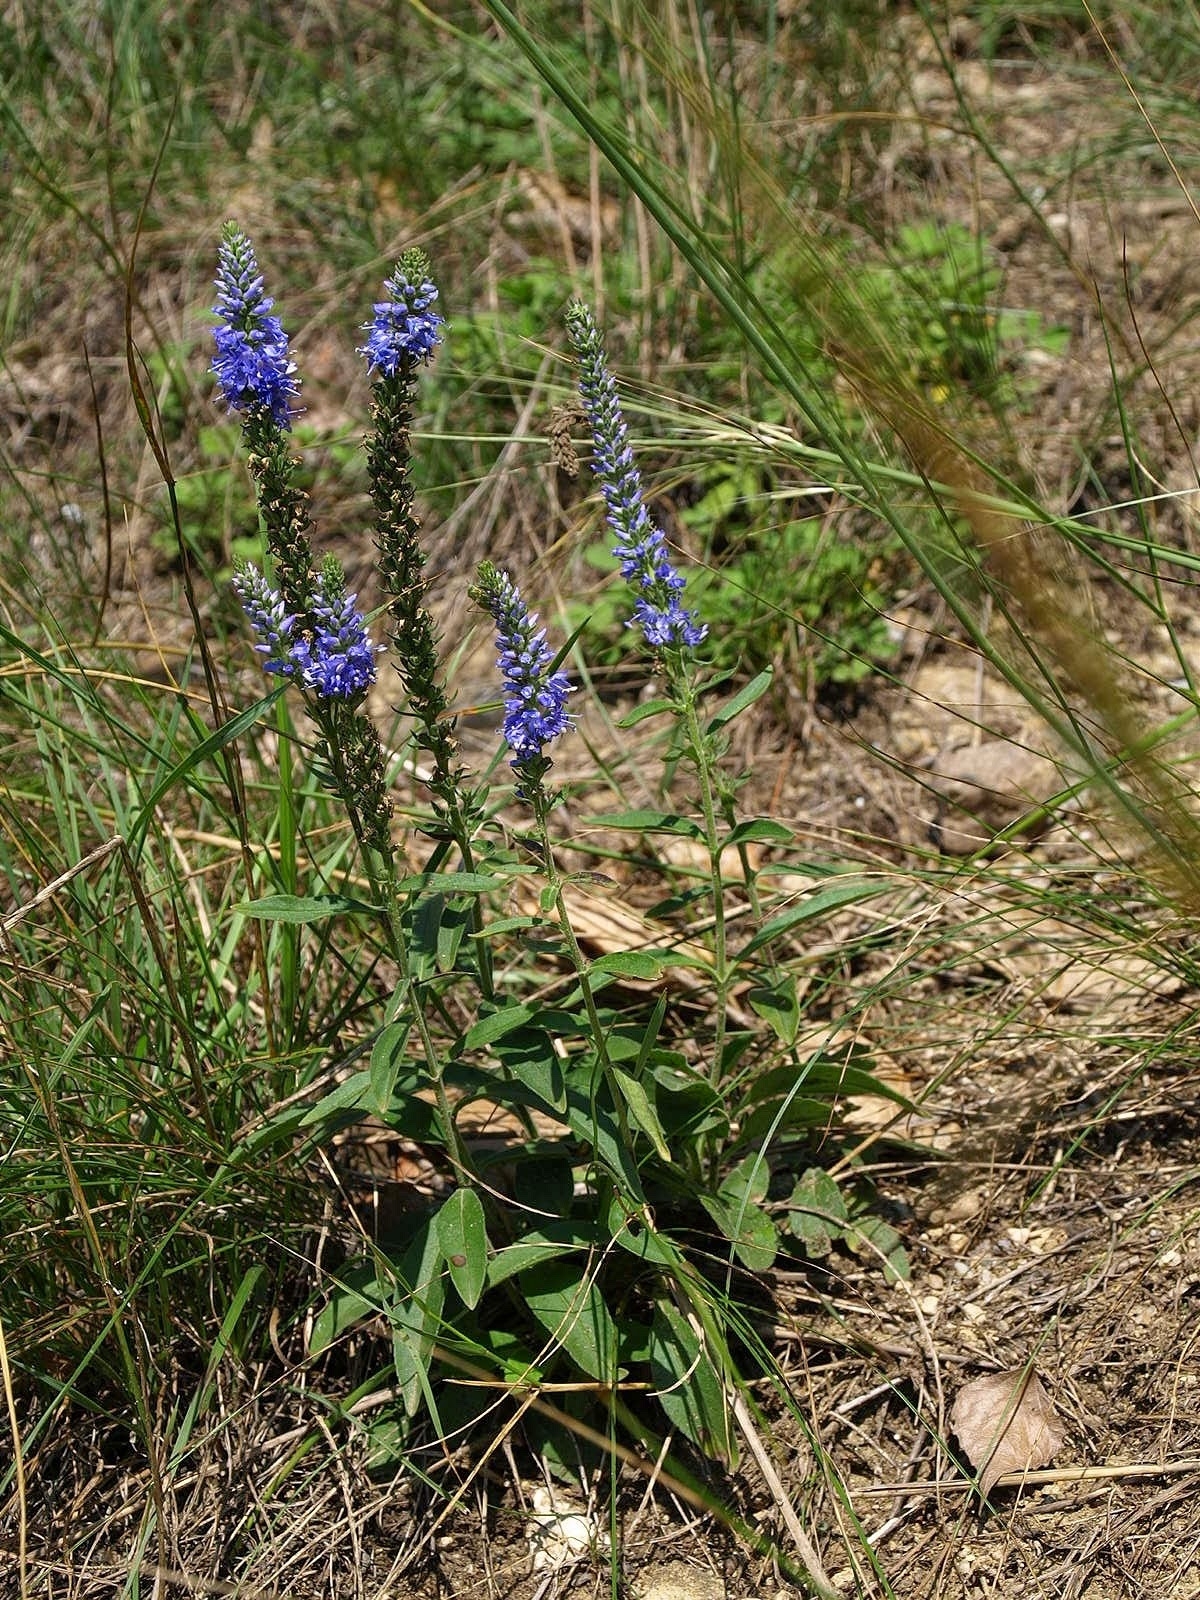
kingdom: Plantae
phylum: Tracheophyta
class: Magnoliopsida
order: Lamiales
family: Plantaginaceae
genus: Veronica
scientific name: Veronica spicata
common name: Spiked speedwell
